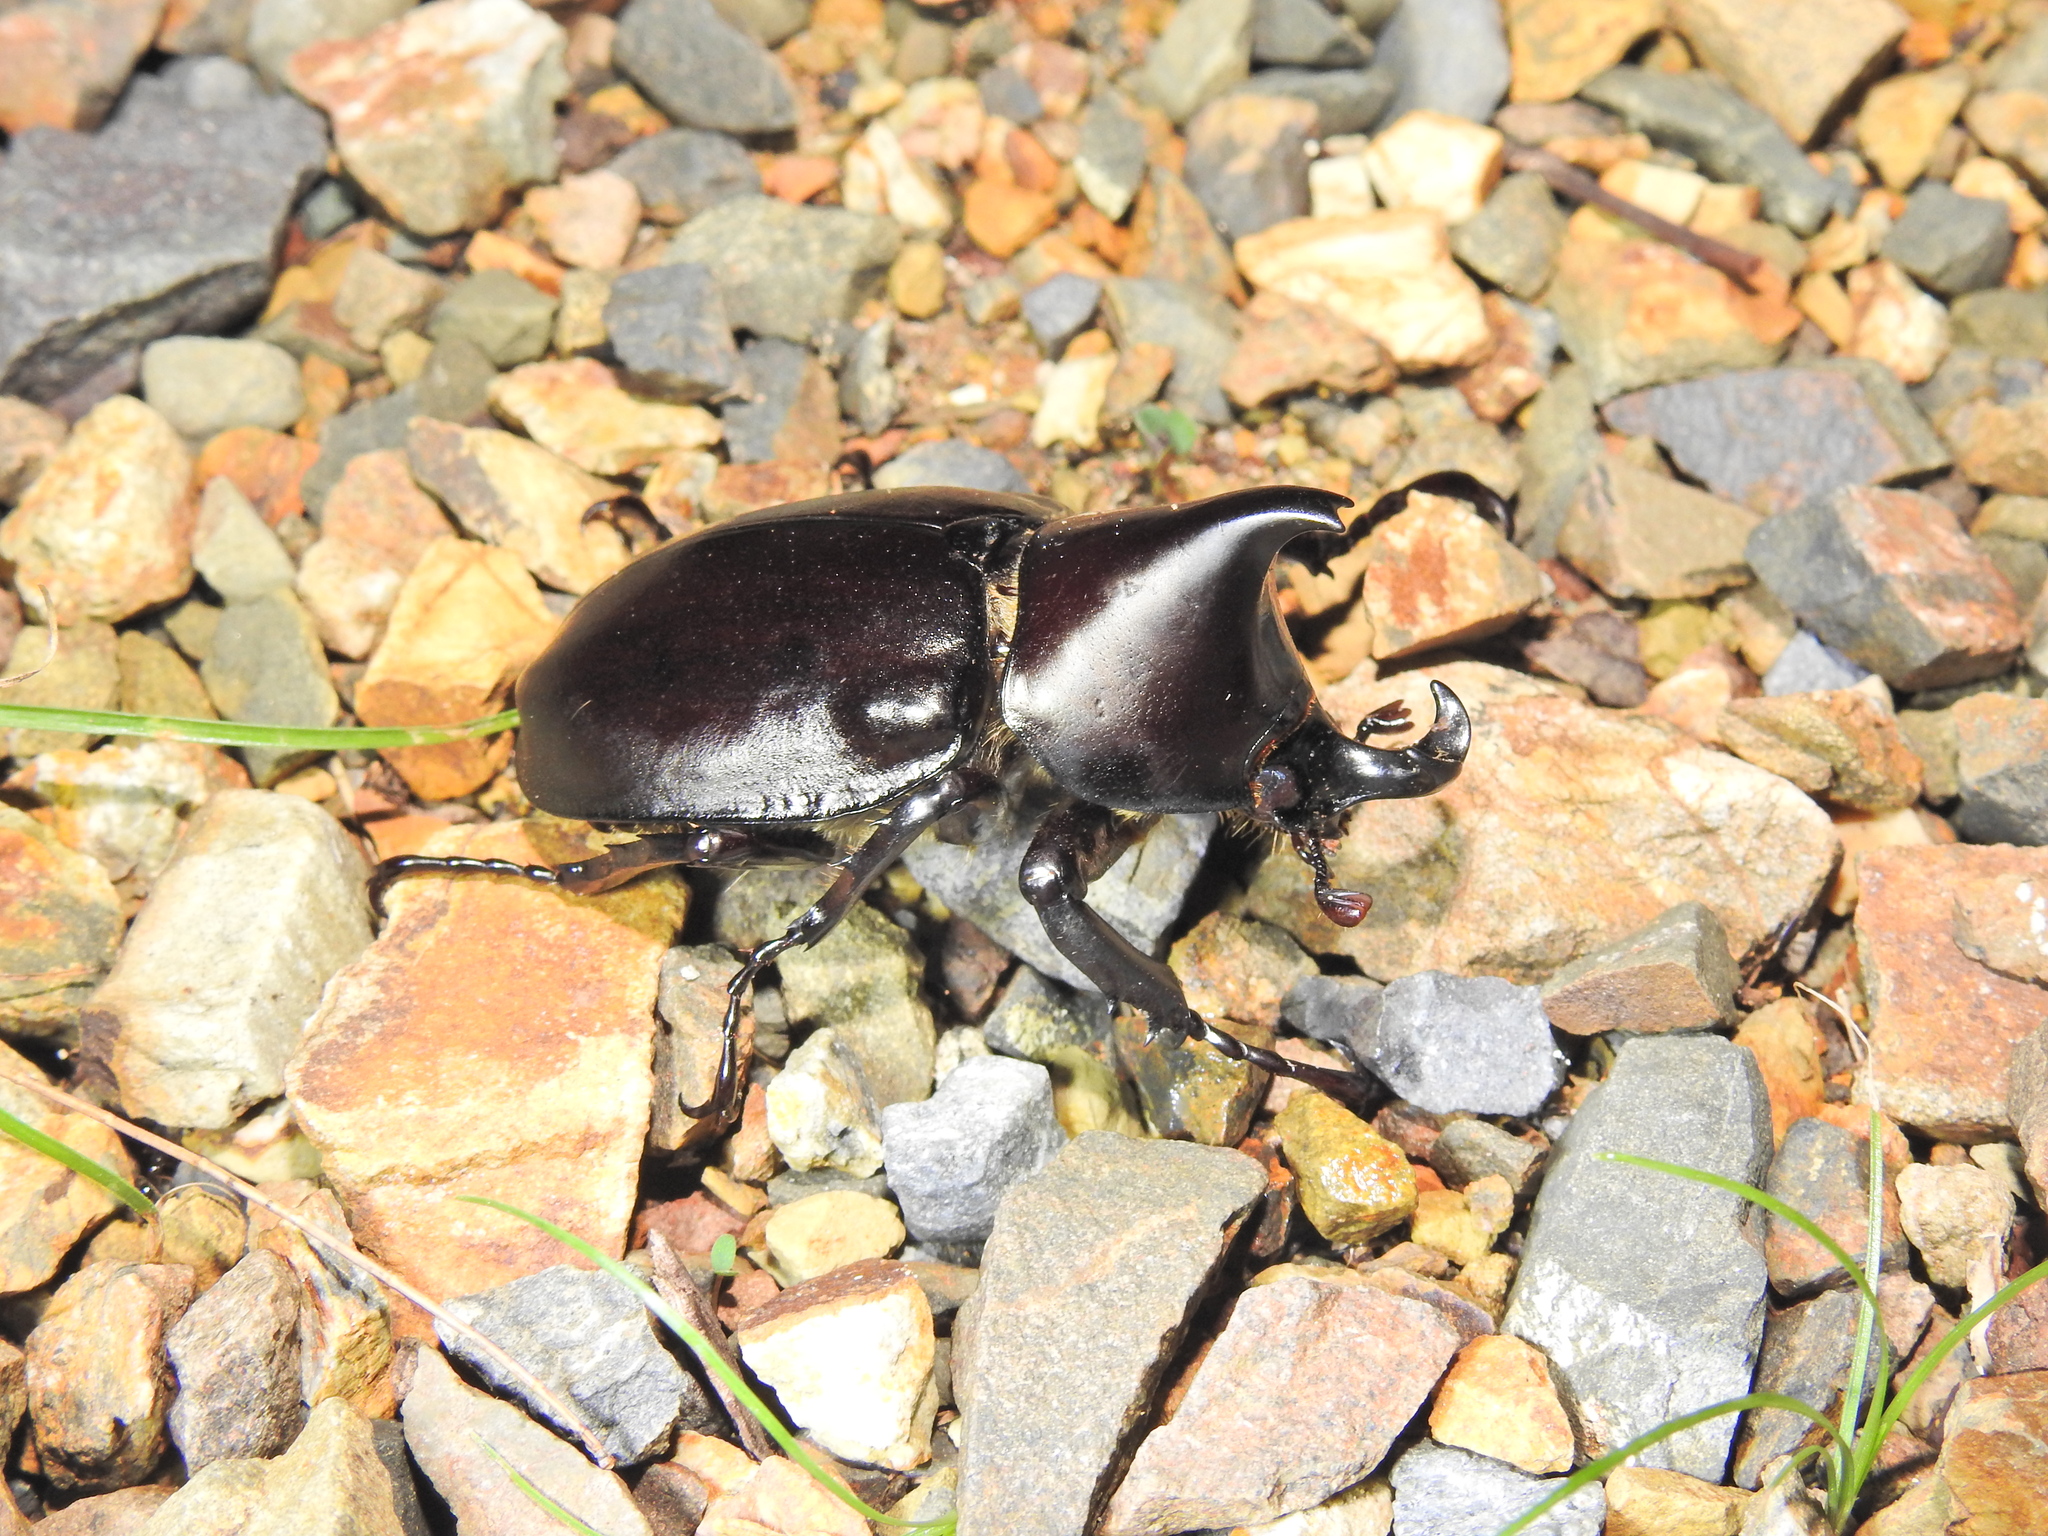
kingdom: Animalia
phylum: Arthropoda
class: Insecta
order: Coleoptera
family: Scarabaeidae
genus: Xylotrupes
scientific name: Xylotrupes australicus
